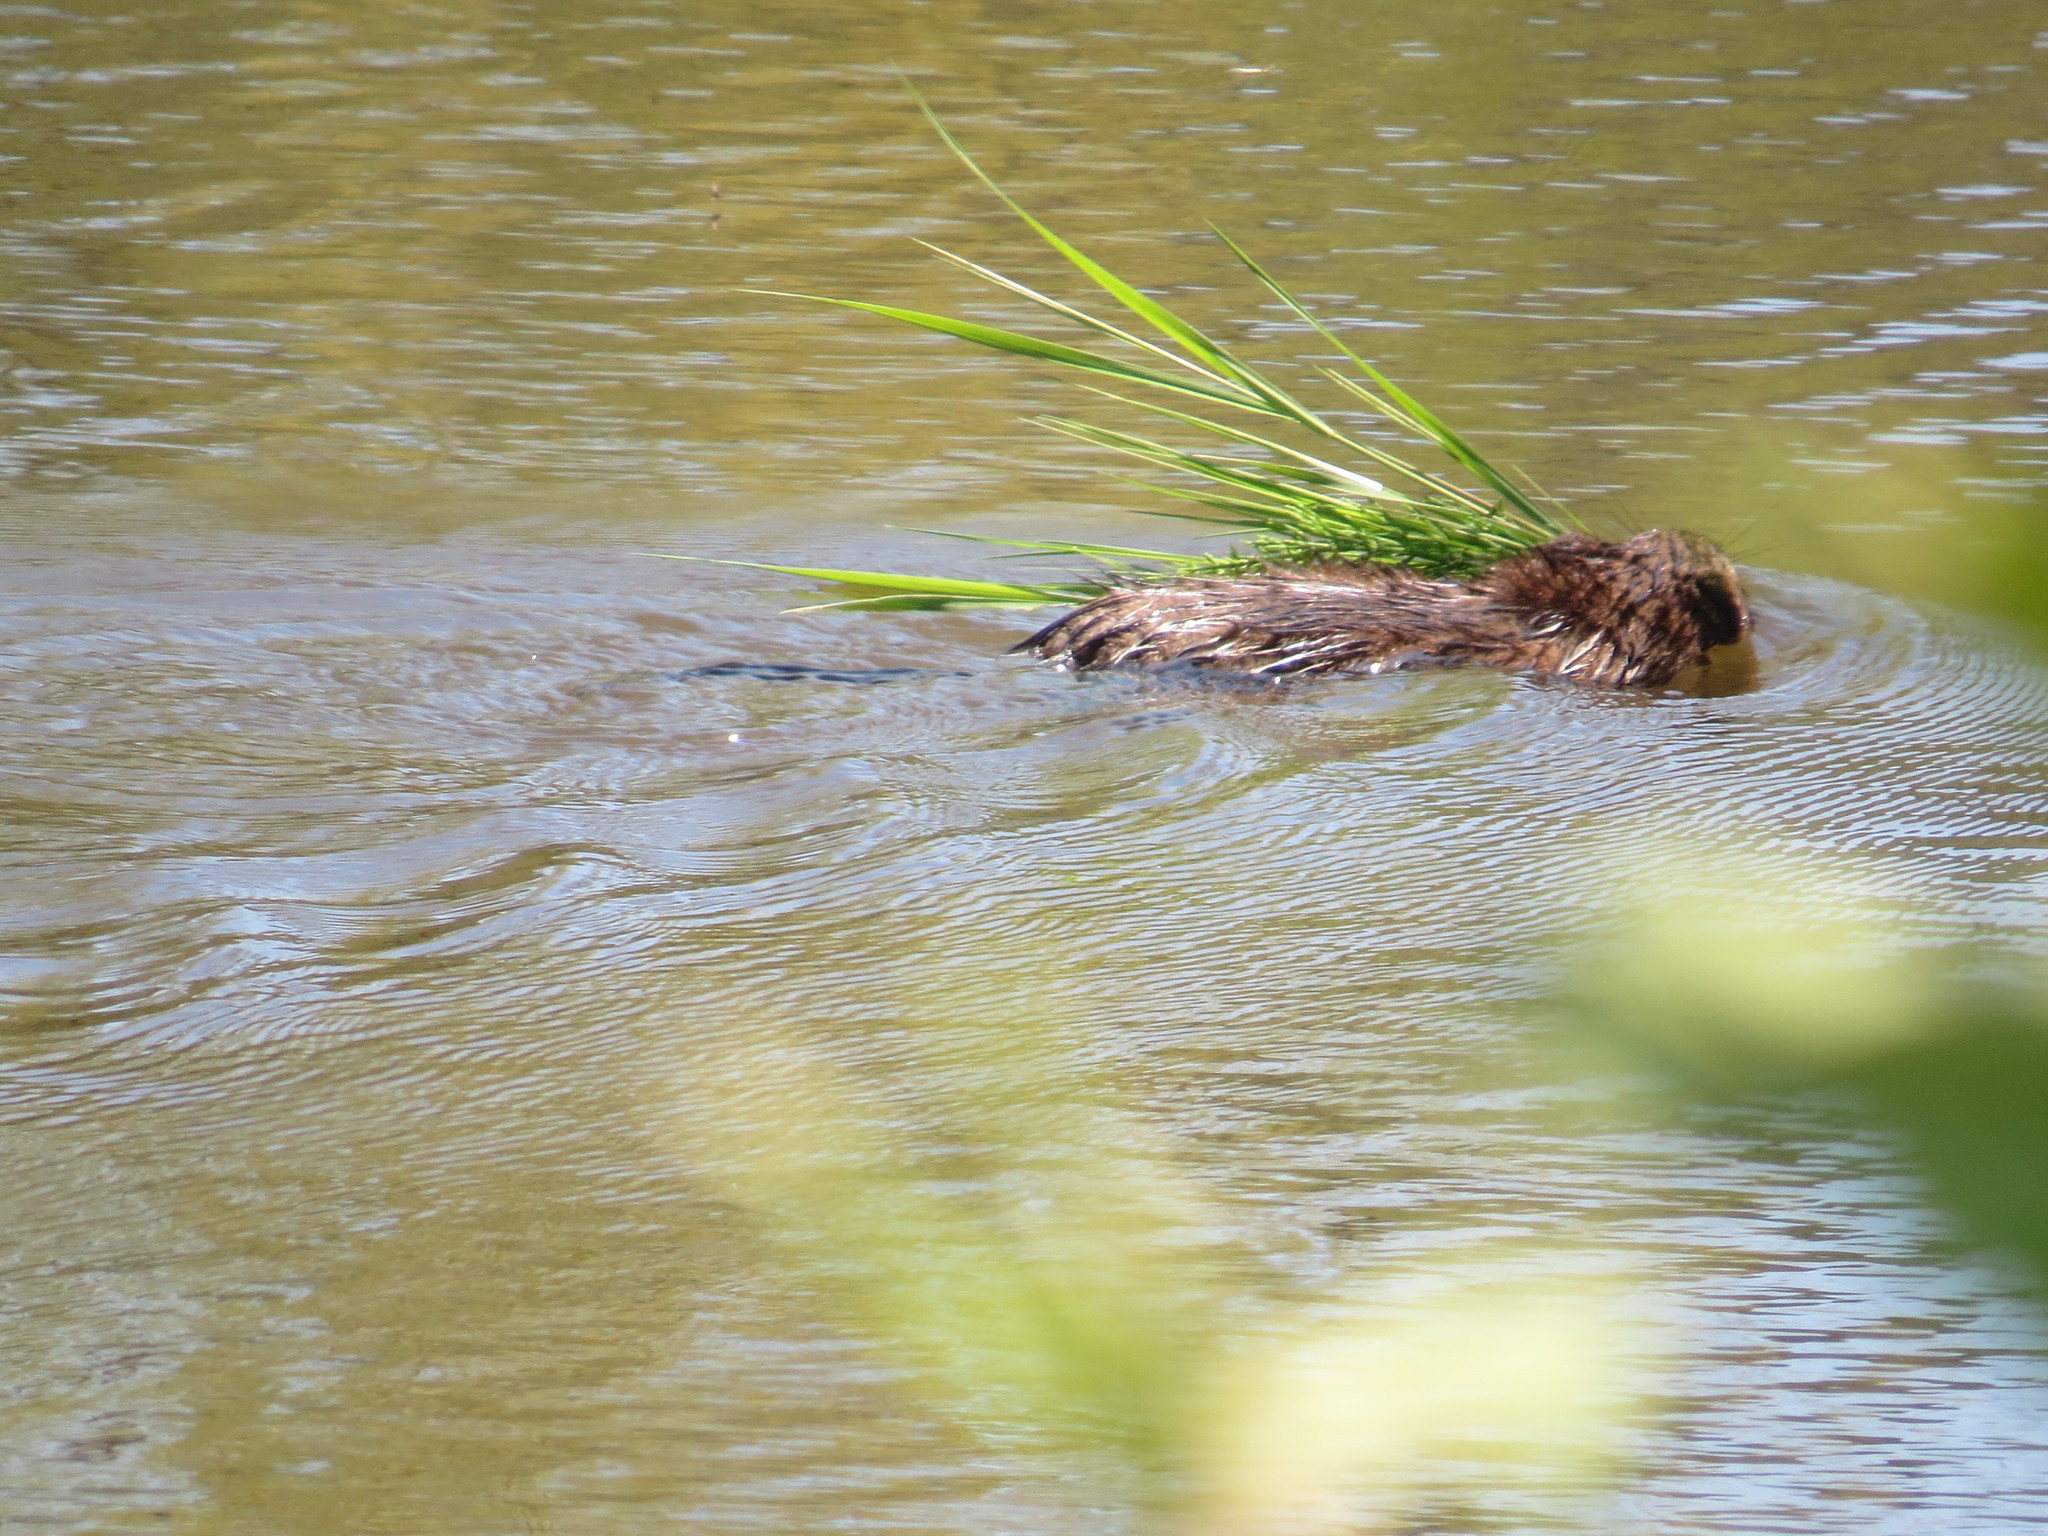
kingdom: Animalia
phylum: Chordata
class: Mammalia
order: Rodentia
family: Cricetidae
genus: Ondatra
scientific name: Ondatra zibethicus
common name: Muskrat
